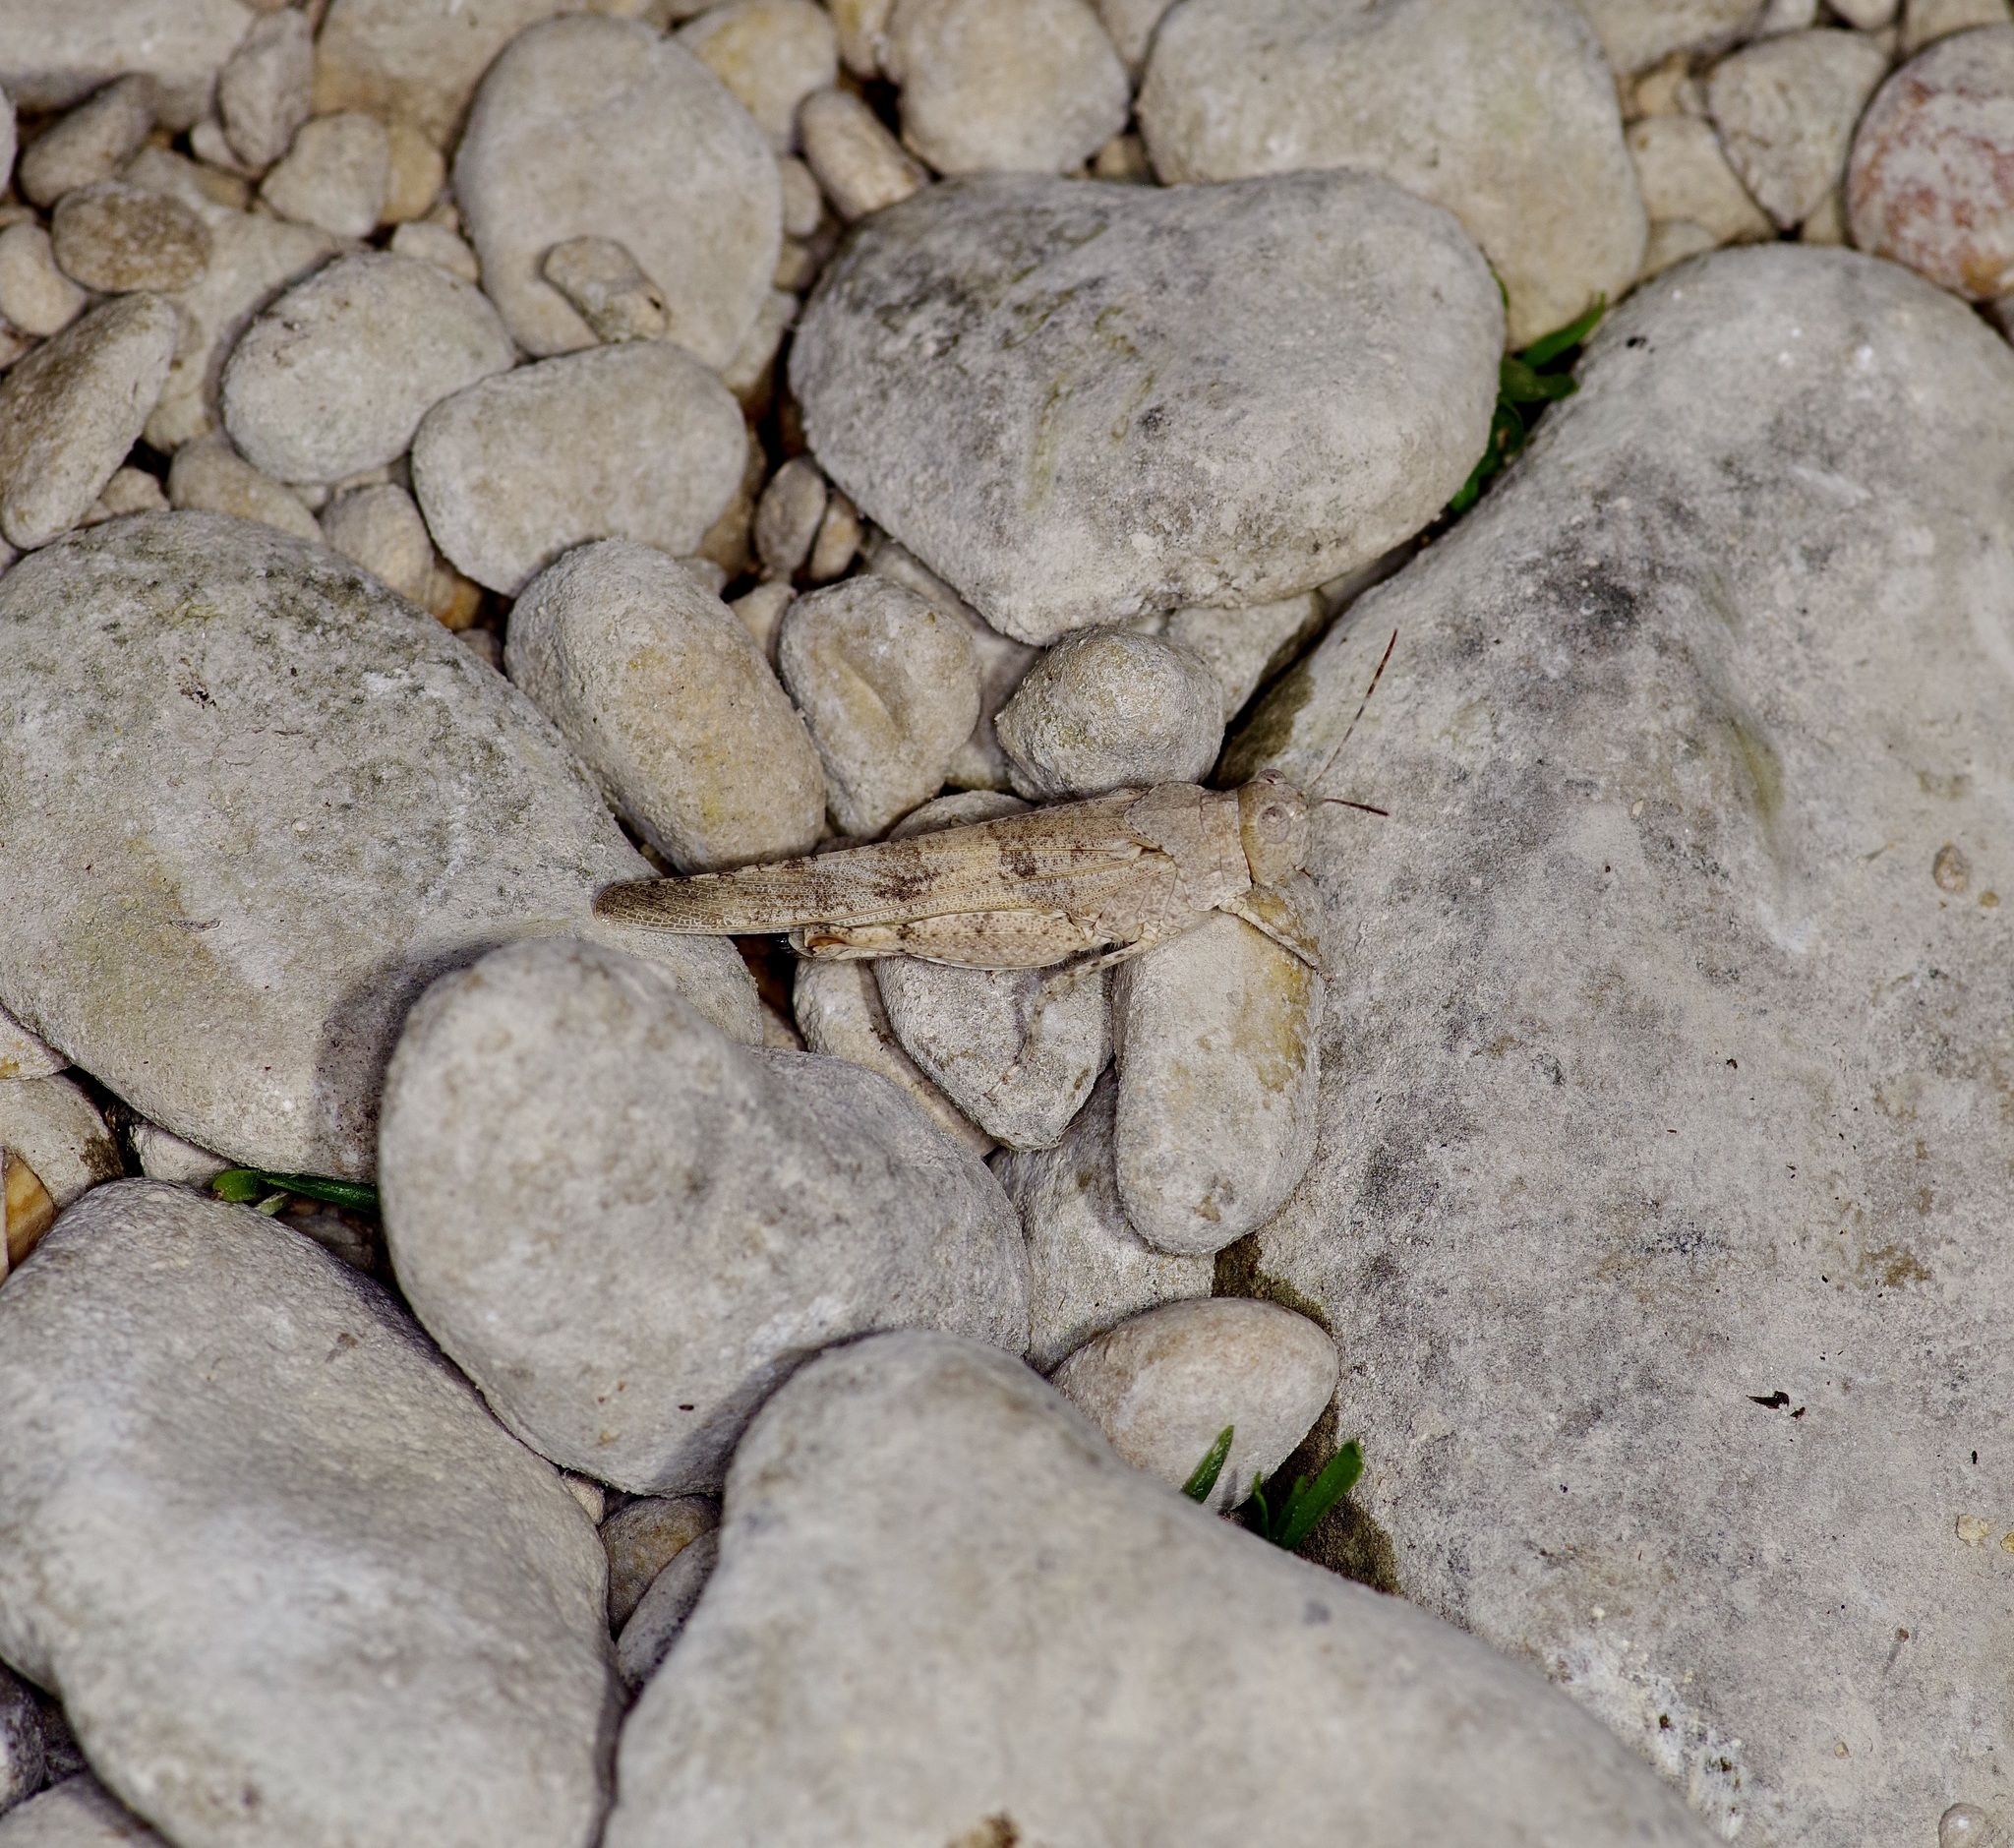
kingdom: Animalia
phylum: Arthropoda
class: Insecta
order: Orthoptera
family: Acrididae
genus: Trimerotropis
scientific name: Trimerotropis maritima
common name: Seaside locust
